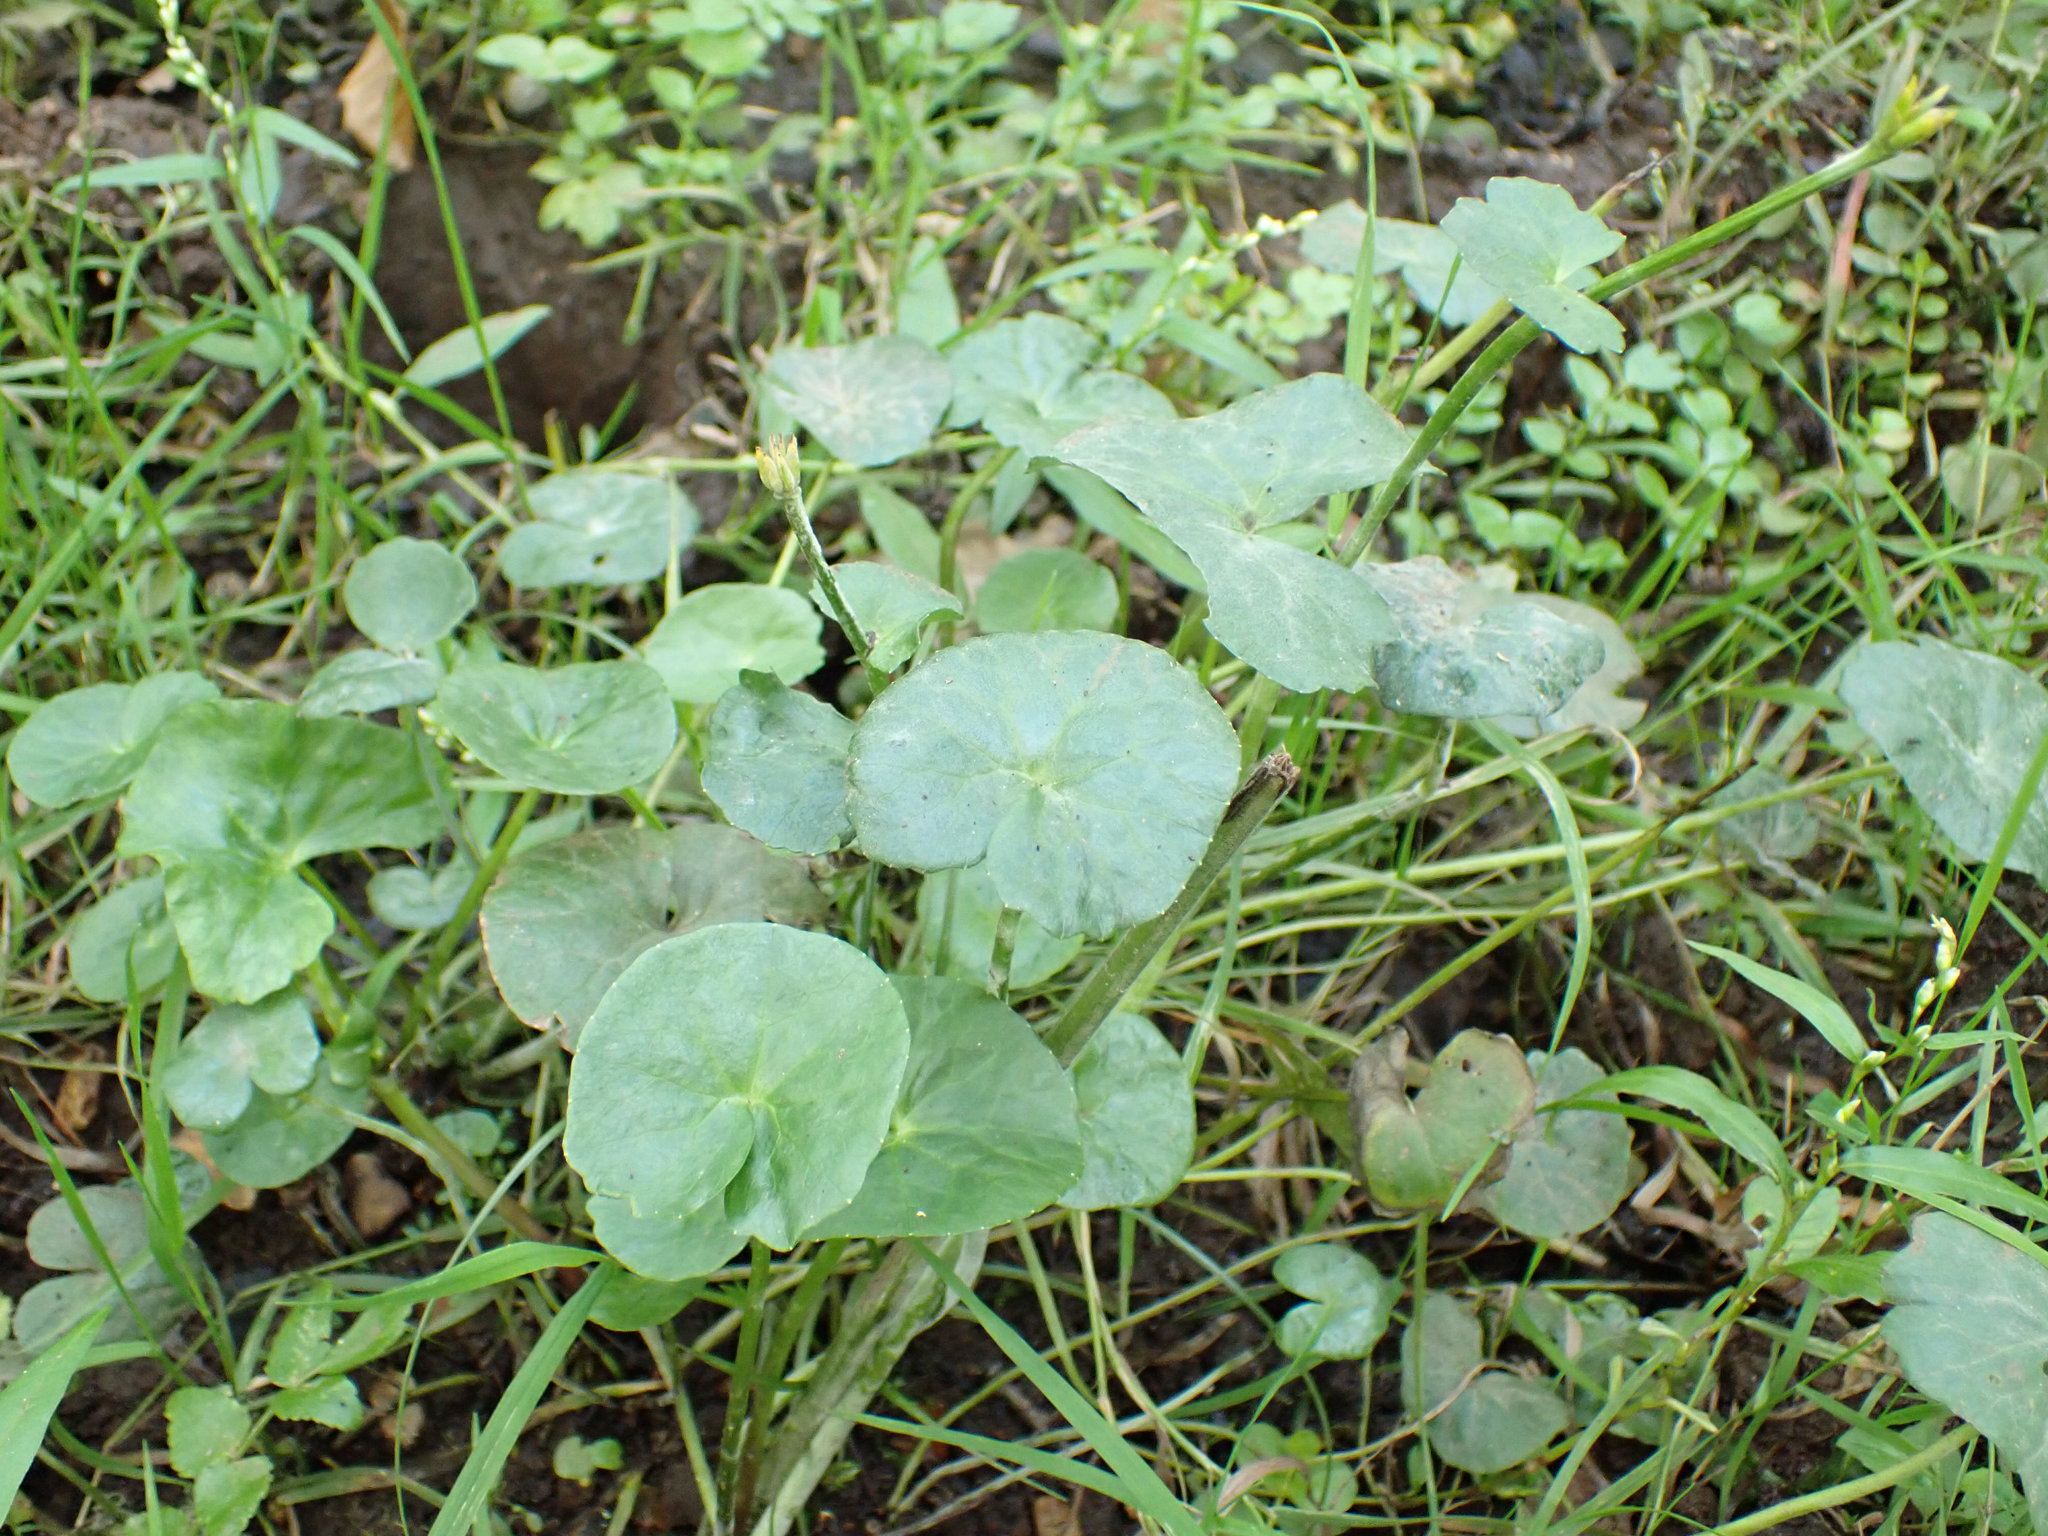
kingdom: Plantae
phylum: Tracheophyta
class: Magnoliopsida
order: Ranunculales
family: Ranunculaceae
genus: Caltha
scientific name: Caltha palustris
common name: Marsh marigold
